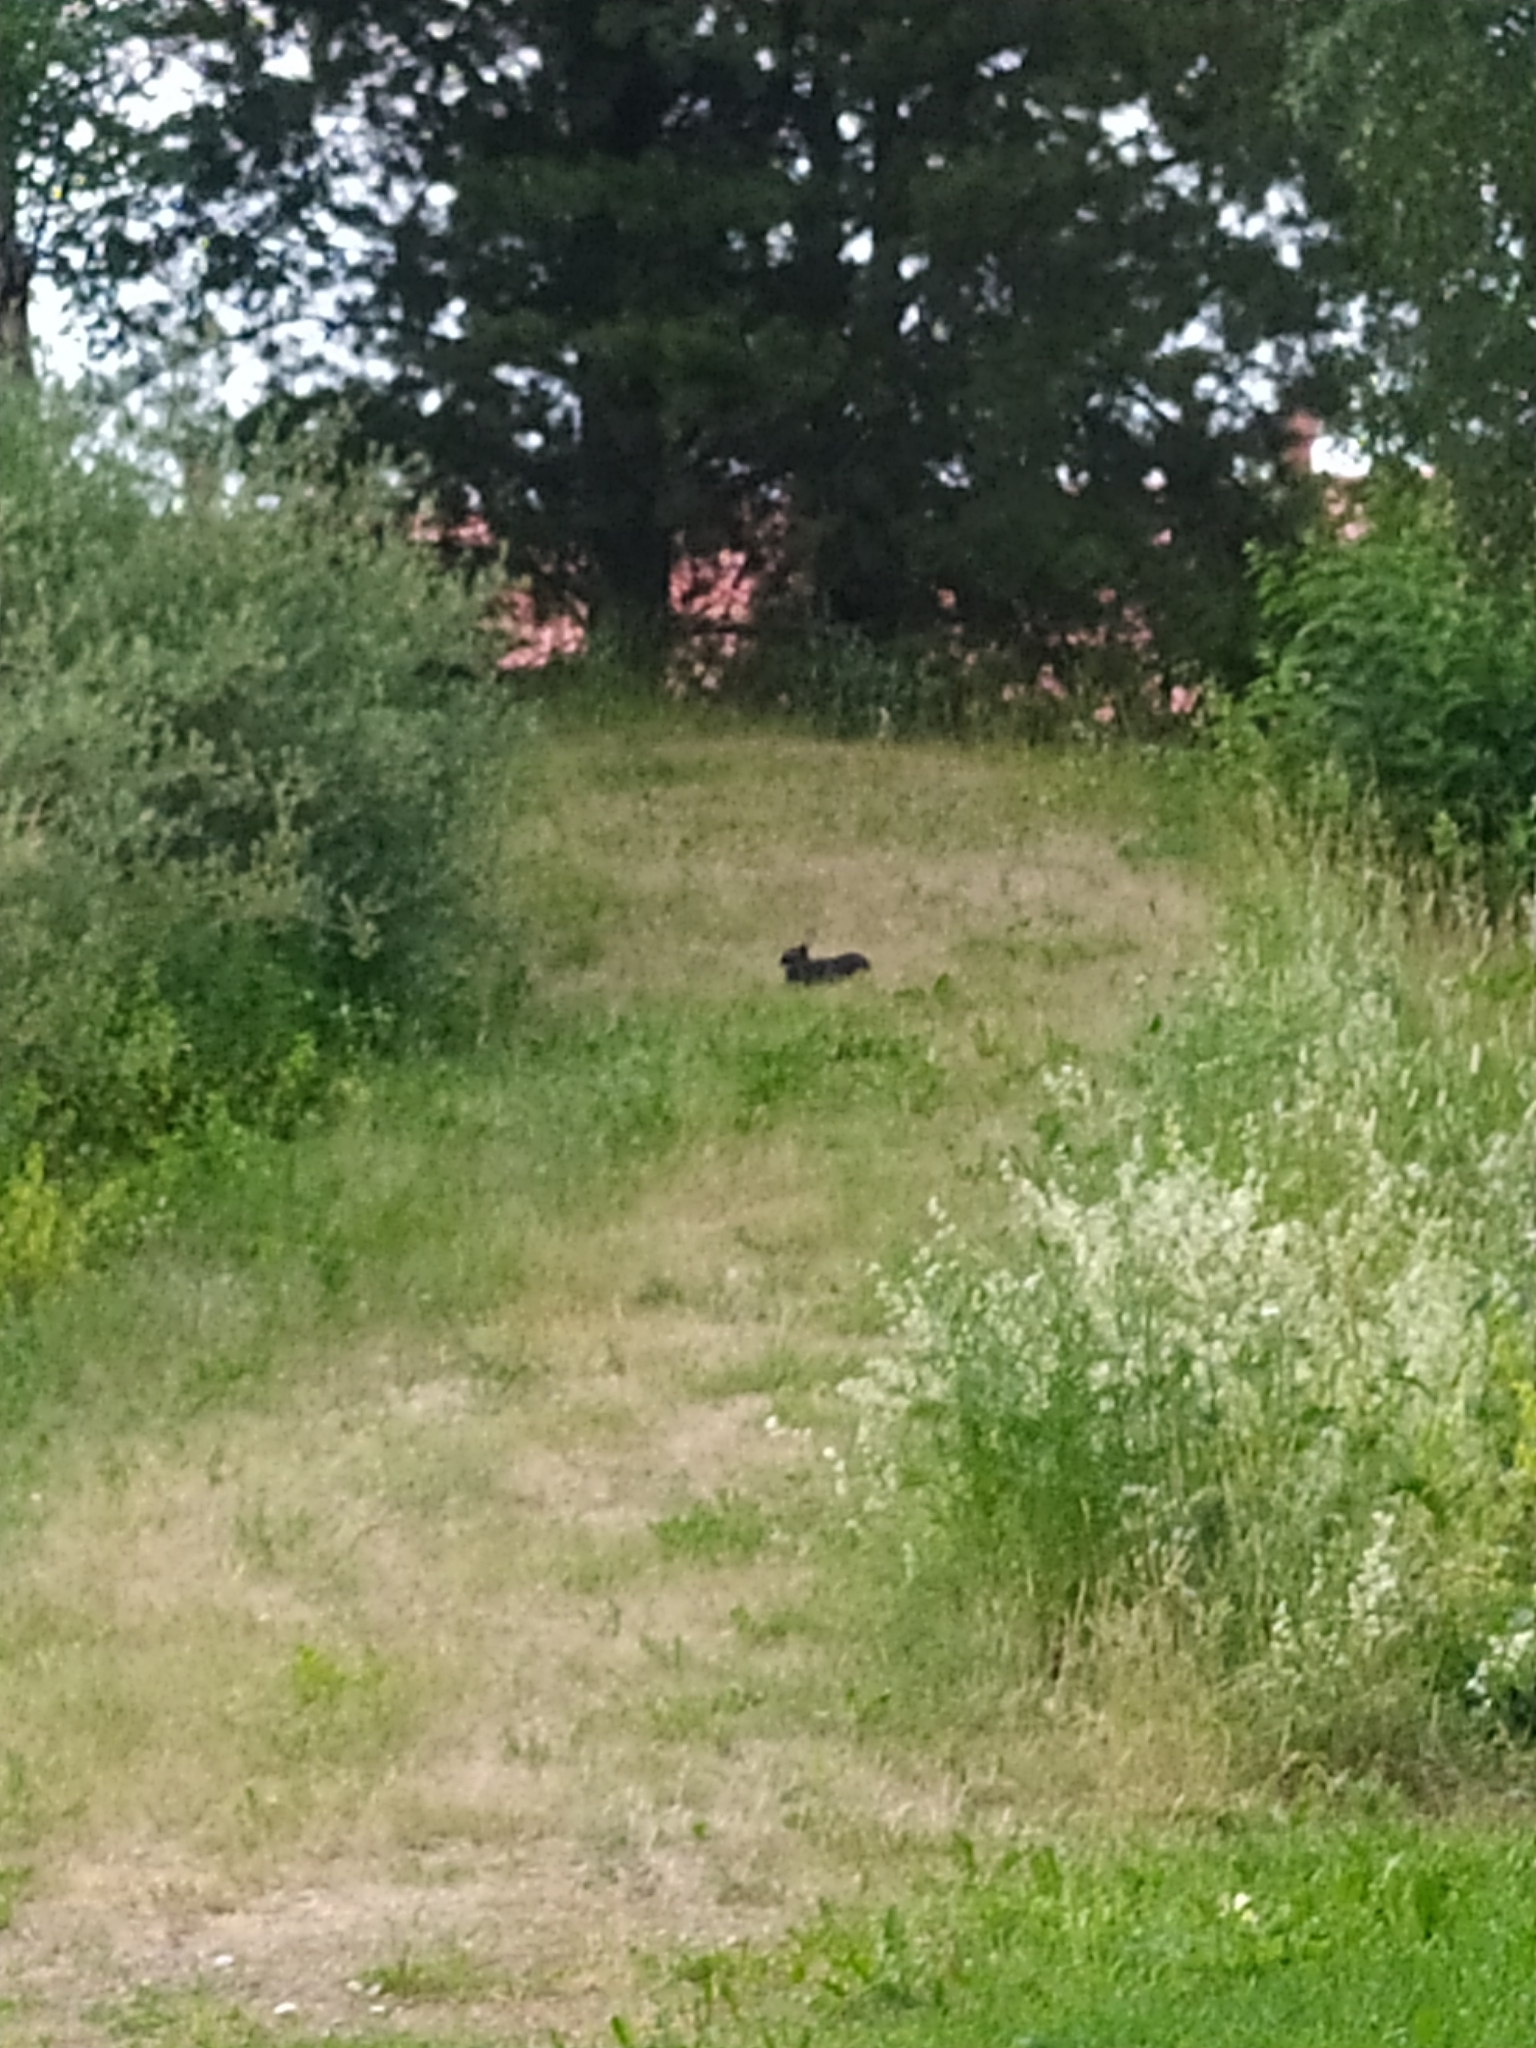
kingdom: Animalia
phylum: Chordata
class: Mammalia
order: Lagomorpha
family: Leporidae
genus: Oryctolagus
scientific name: Oryctolagus cuniculus
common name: European rabbit
